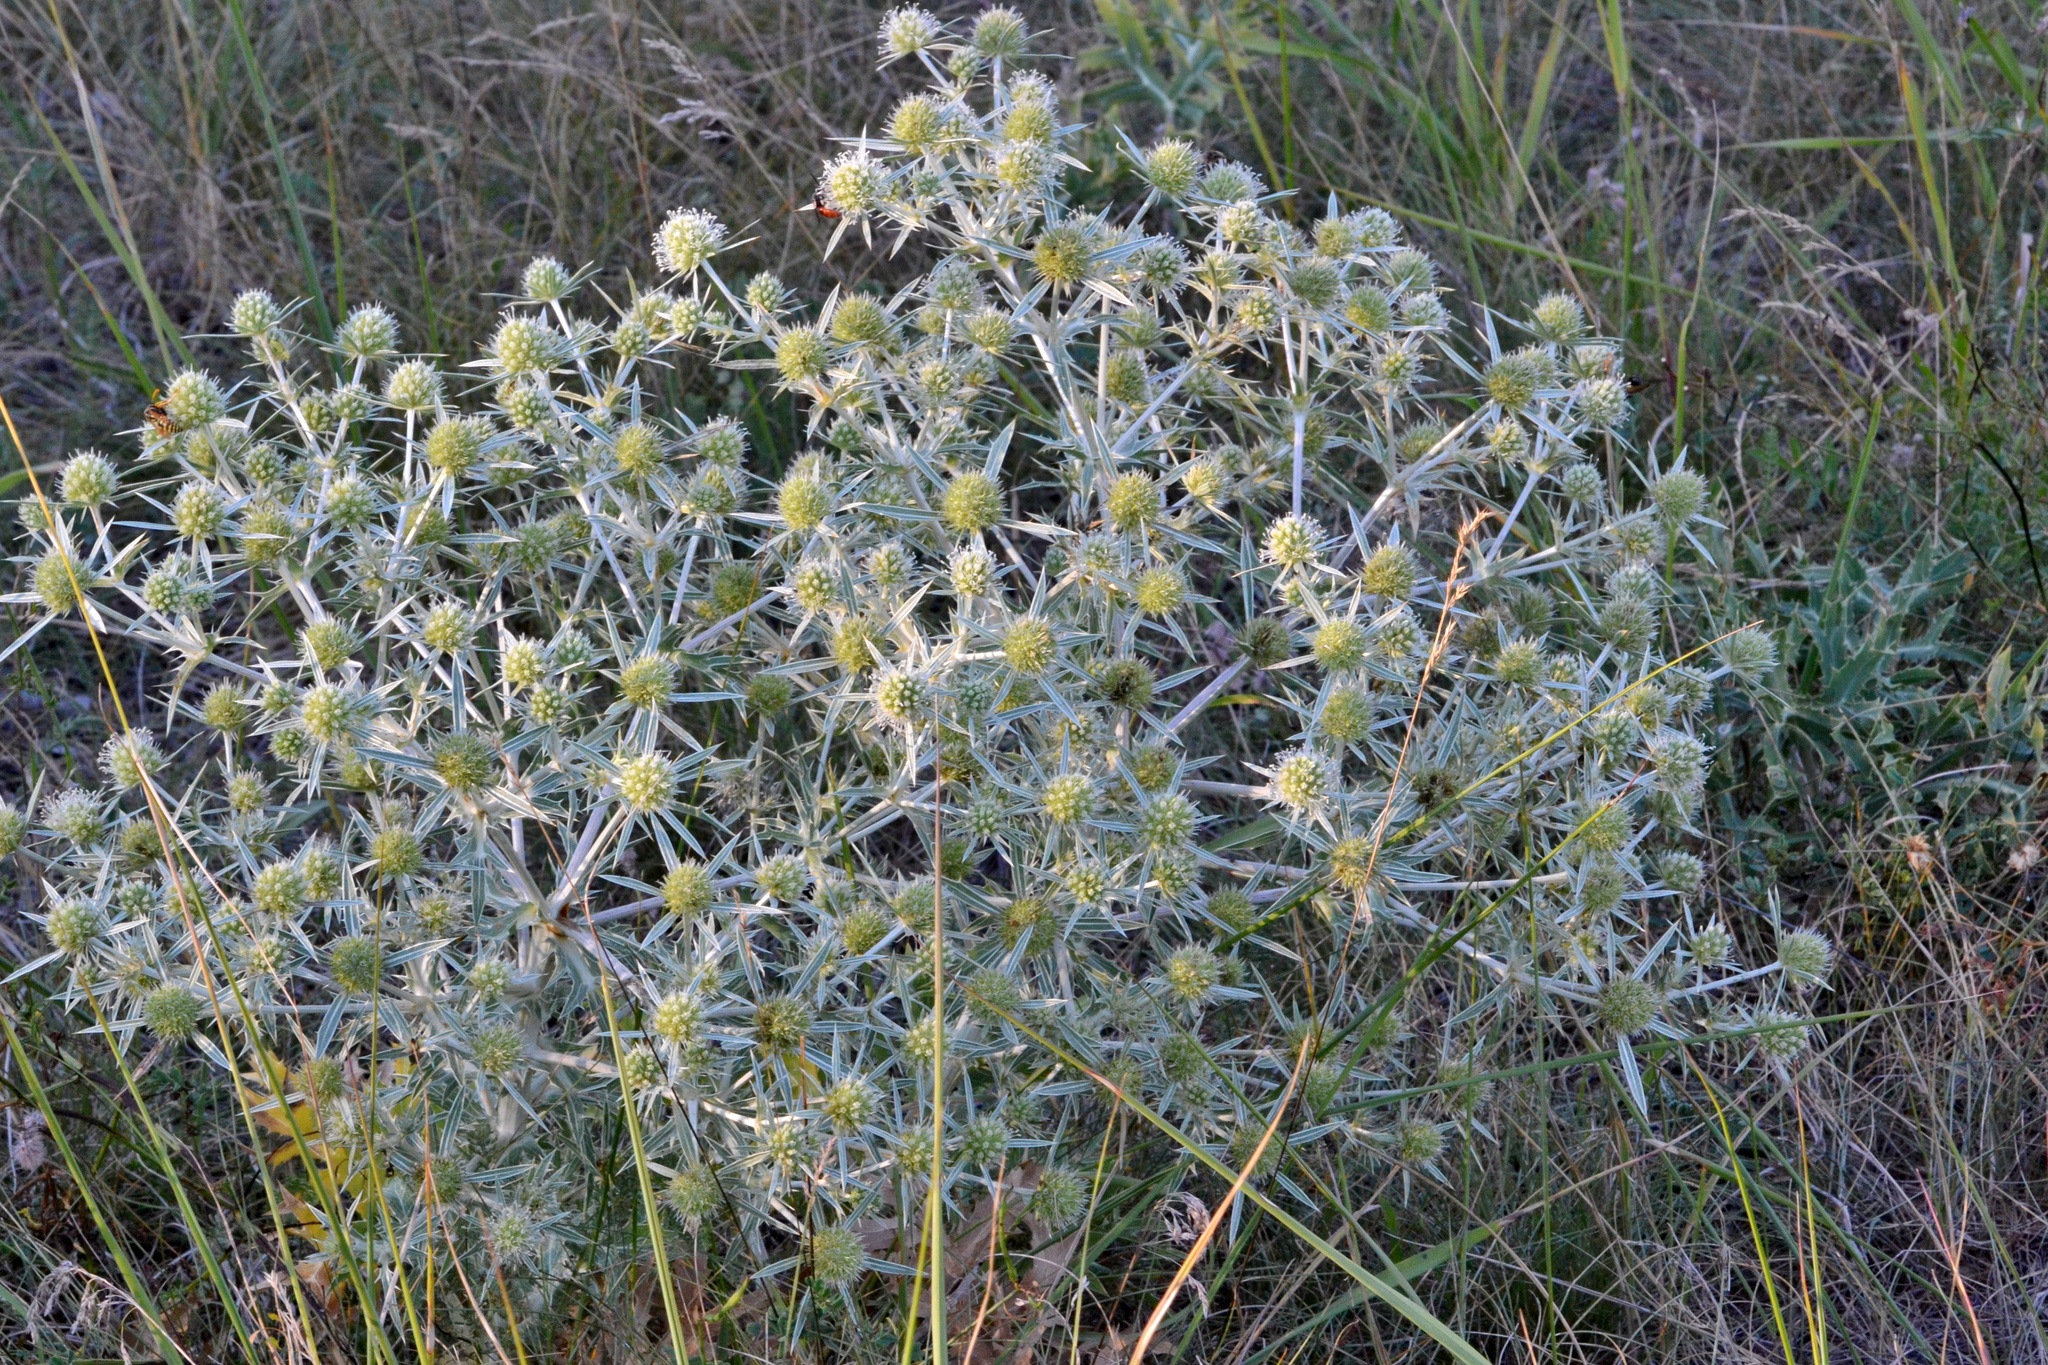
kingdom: Plantae
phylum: Tracheophyta
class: Magnoliopsida
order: Apiales
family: Apiaceae
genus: Eryngium
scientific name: Eryngium campestre
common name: Field eryngo
